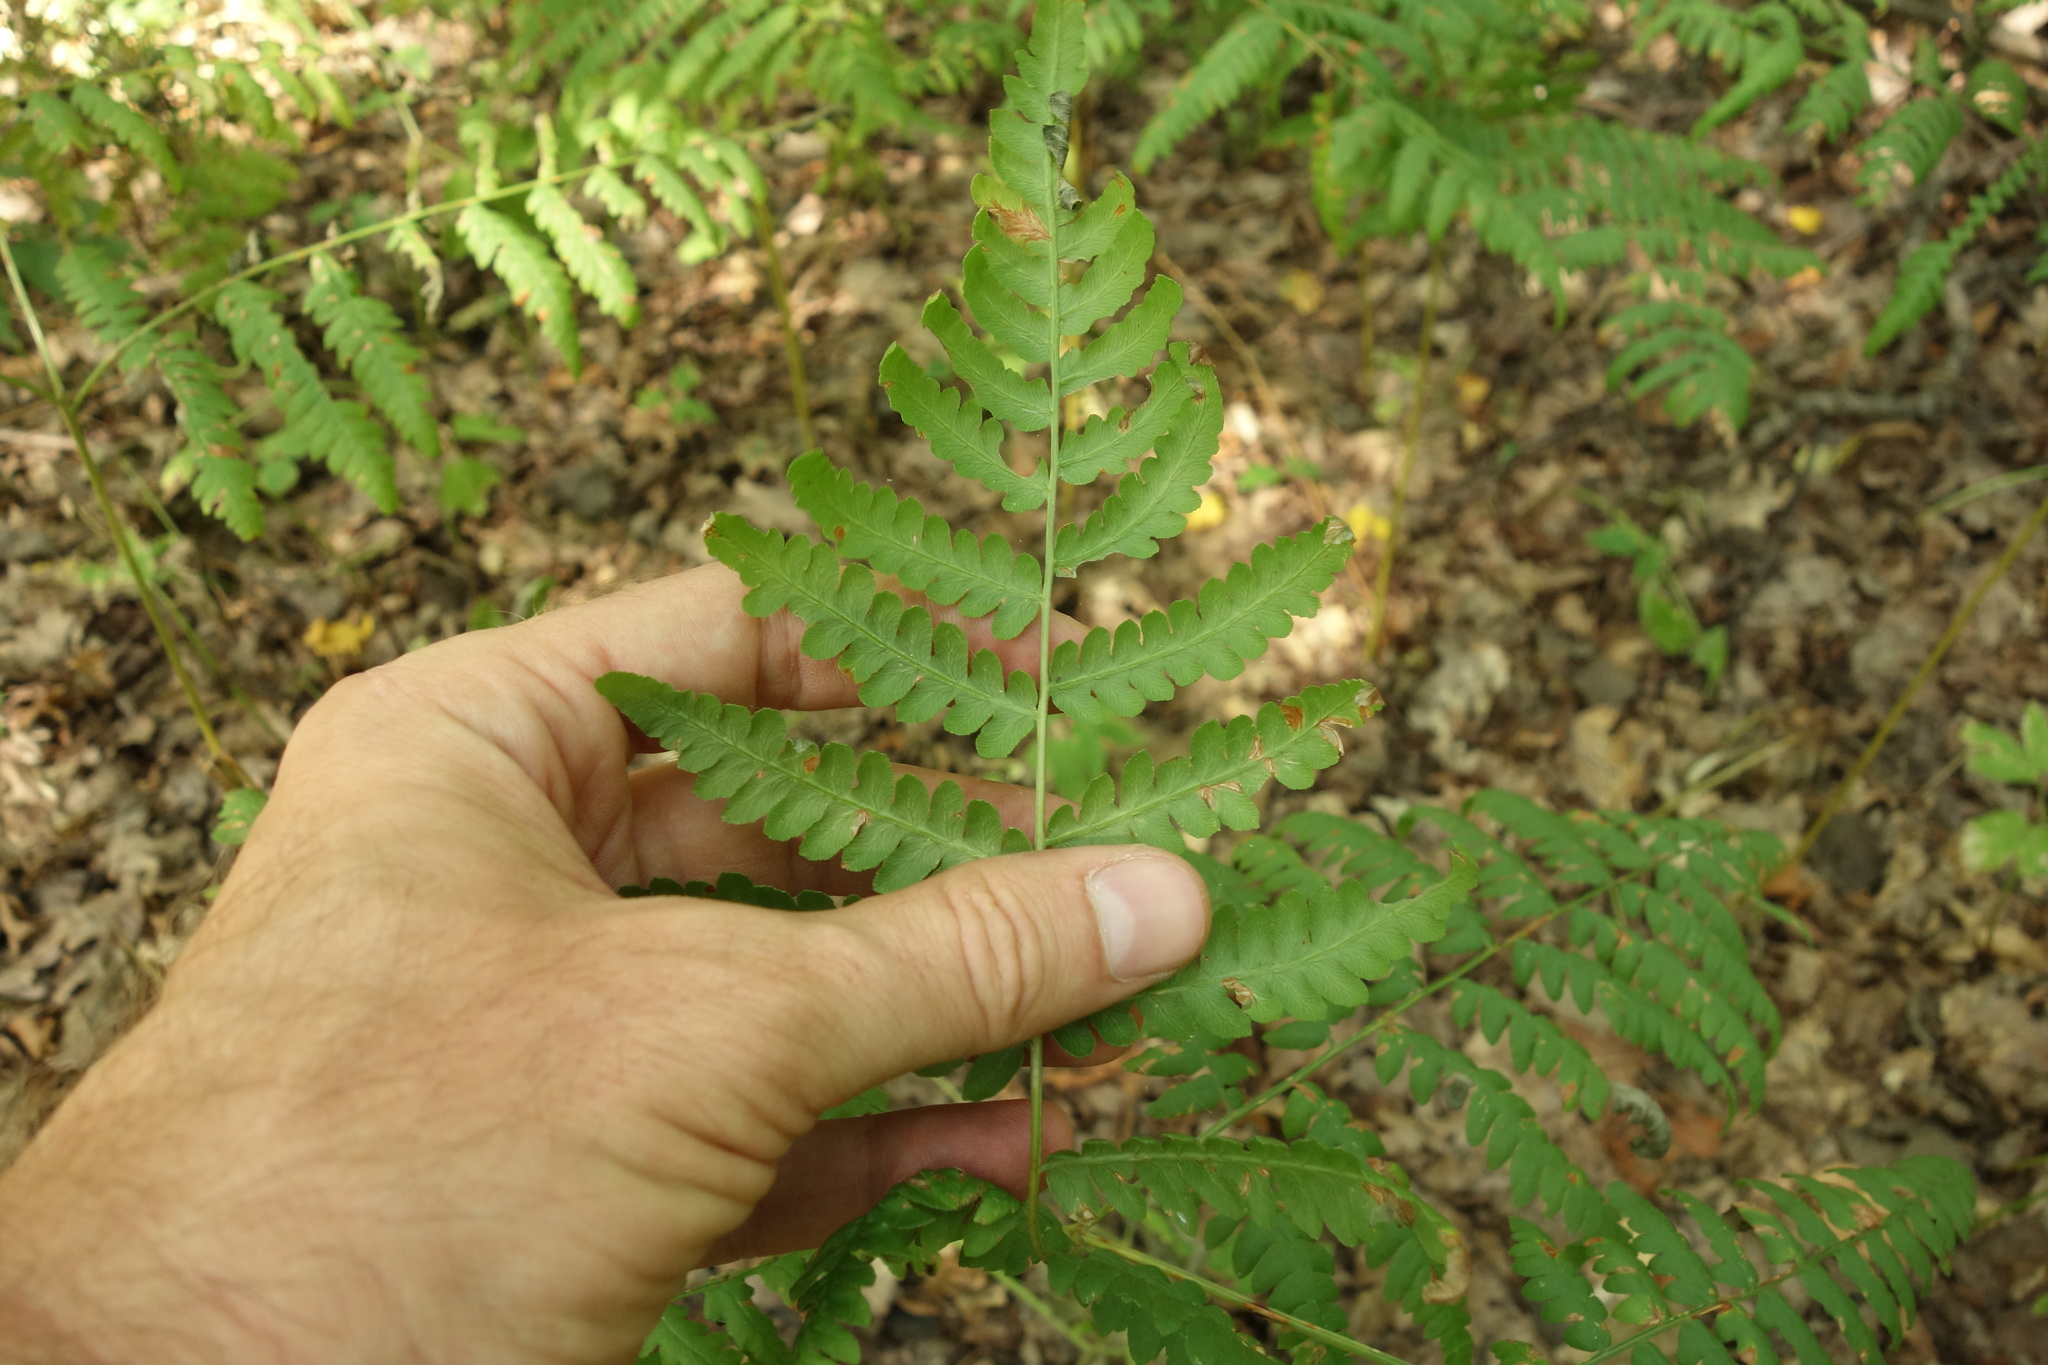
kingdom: Plantae
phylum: Tracheophyta
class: Polypodiopsida
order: Polypodiales
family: Dennstaedtiaceae
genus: Pteridium
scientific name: Pteridium aquilinum
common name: Bracken
